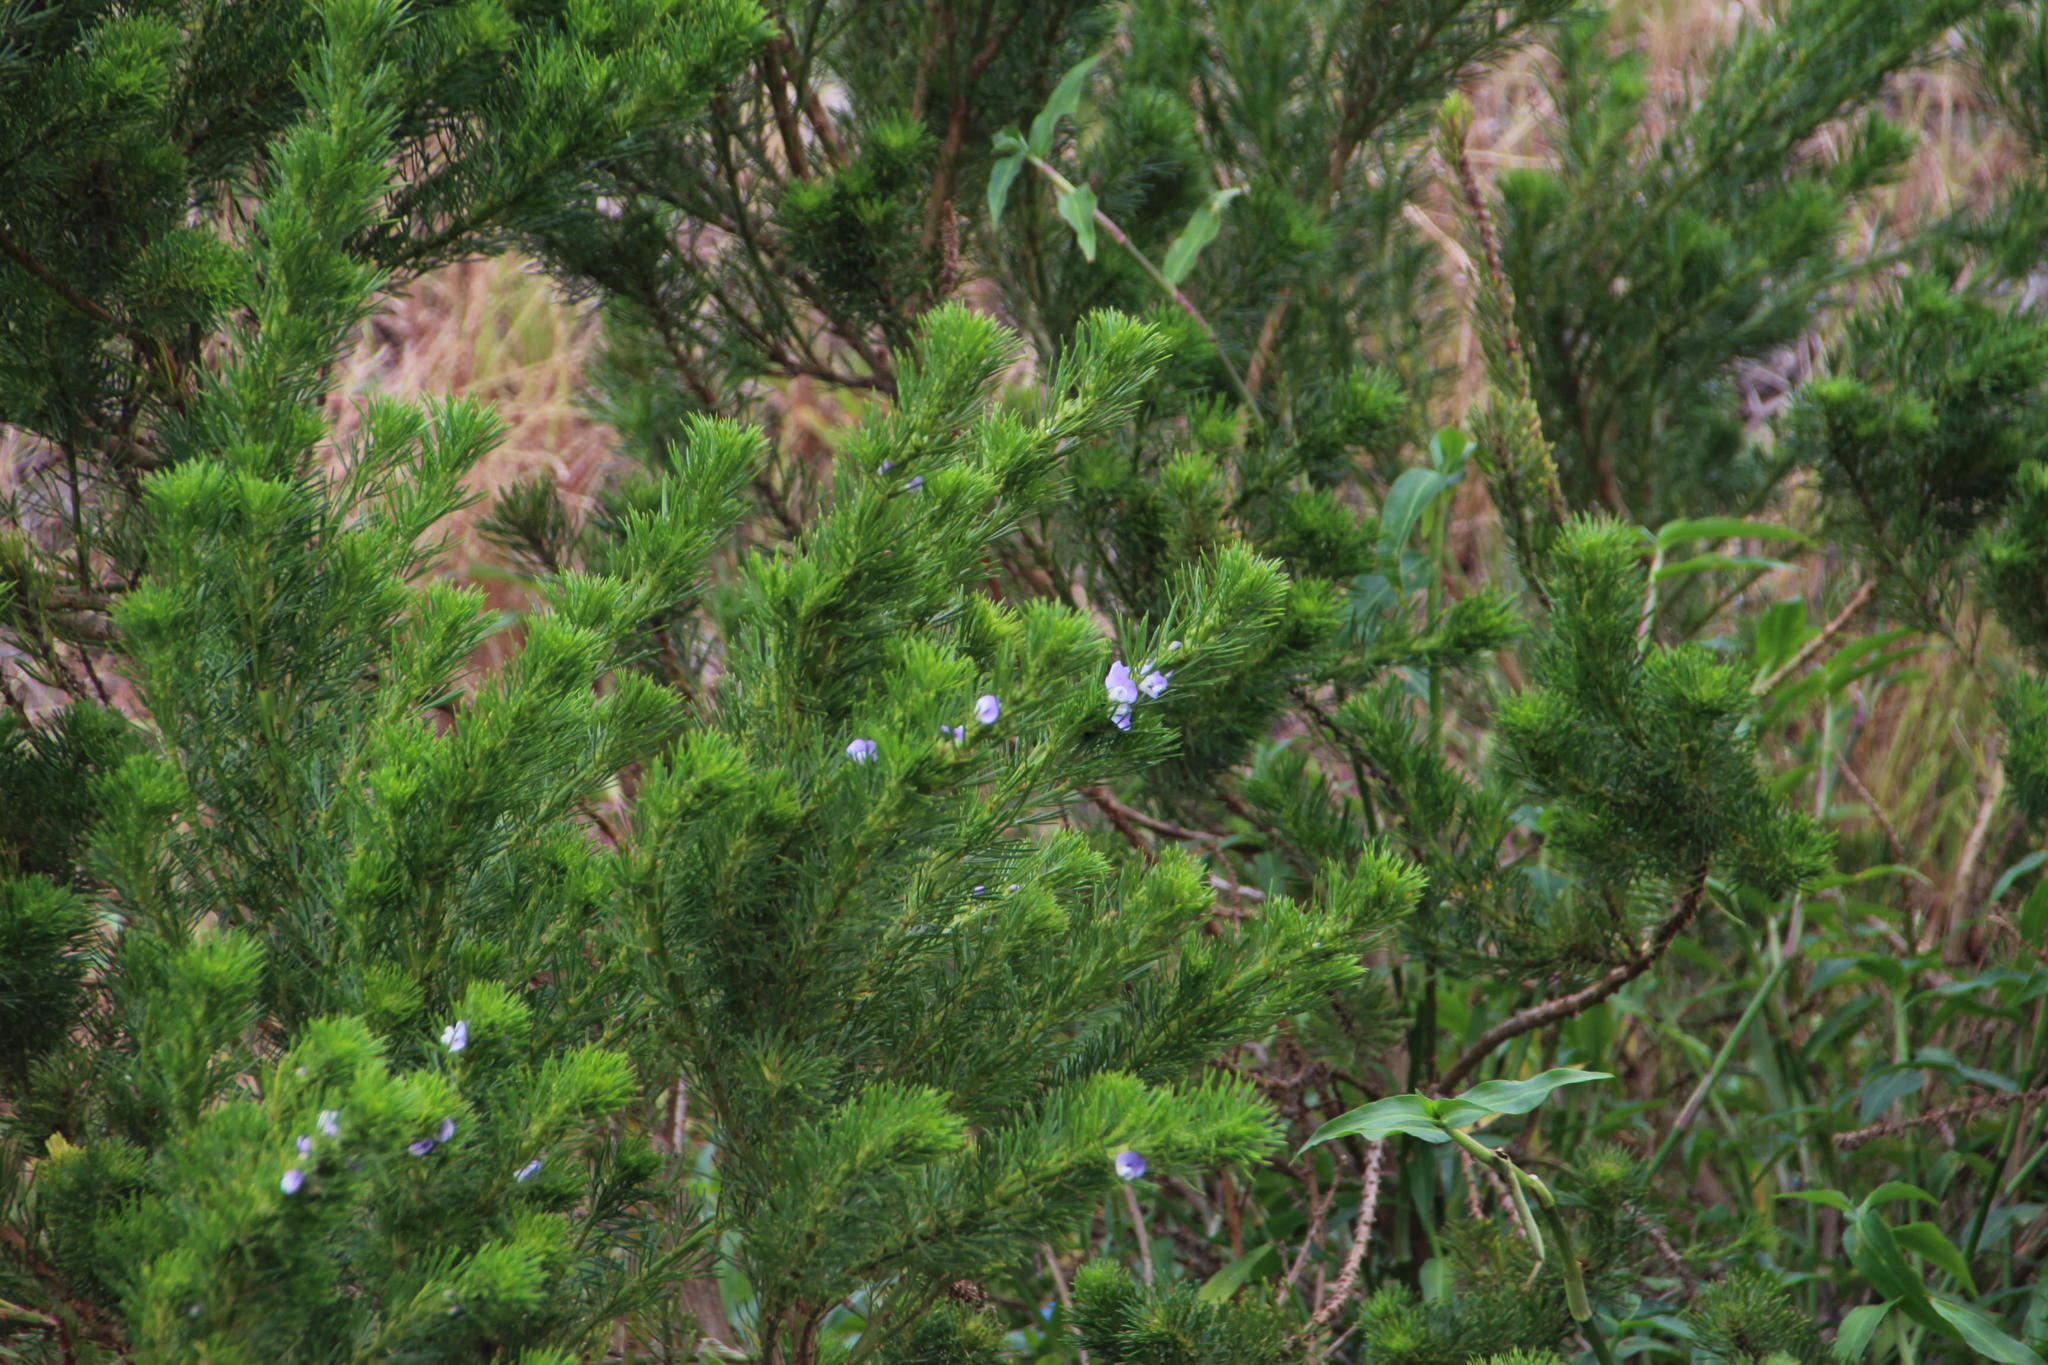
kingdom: Plantae
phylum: Tracheophyta
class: Magnoliopsida
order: Fabales
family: Fabaceae
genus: Psoralea
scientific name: Psoralea pinnata
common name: African scurfpea
